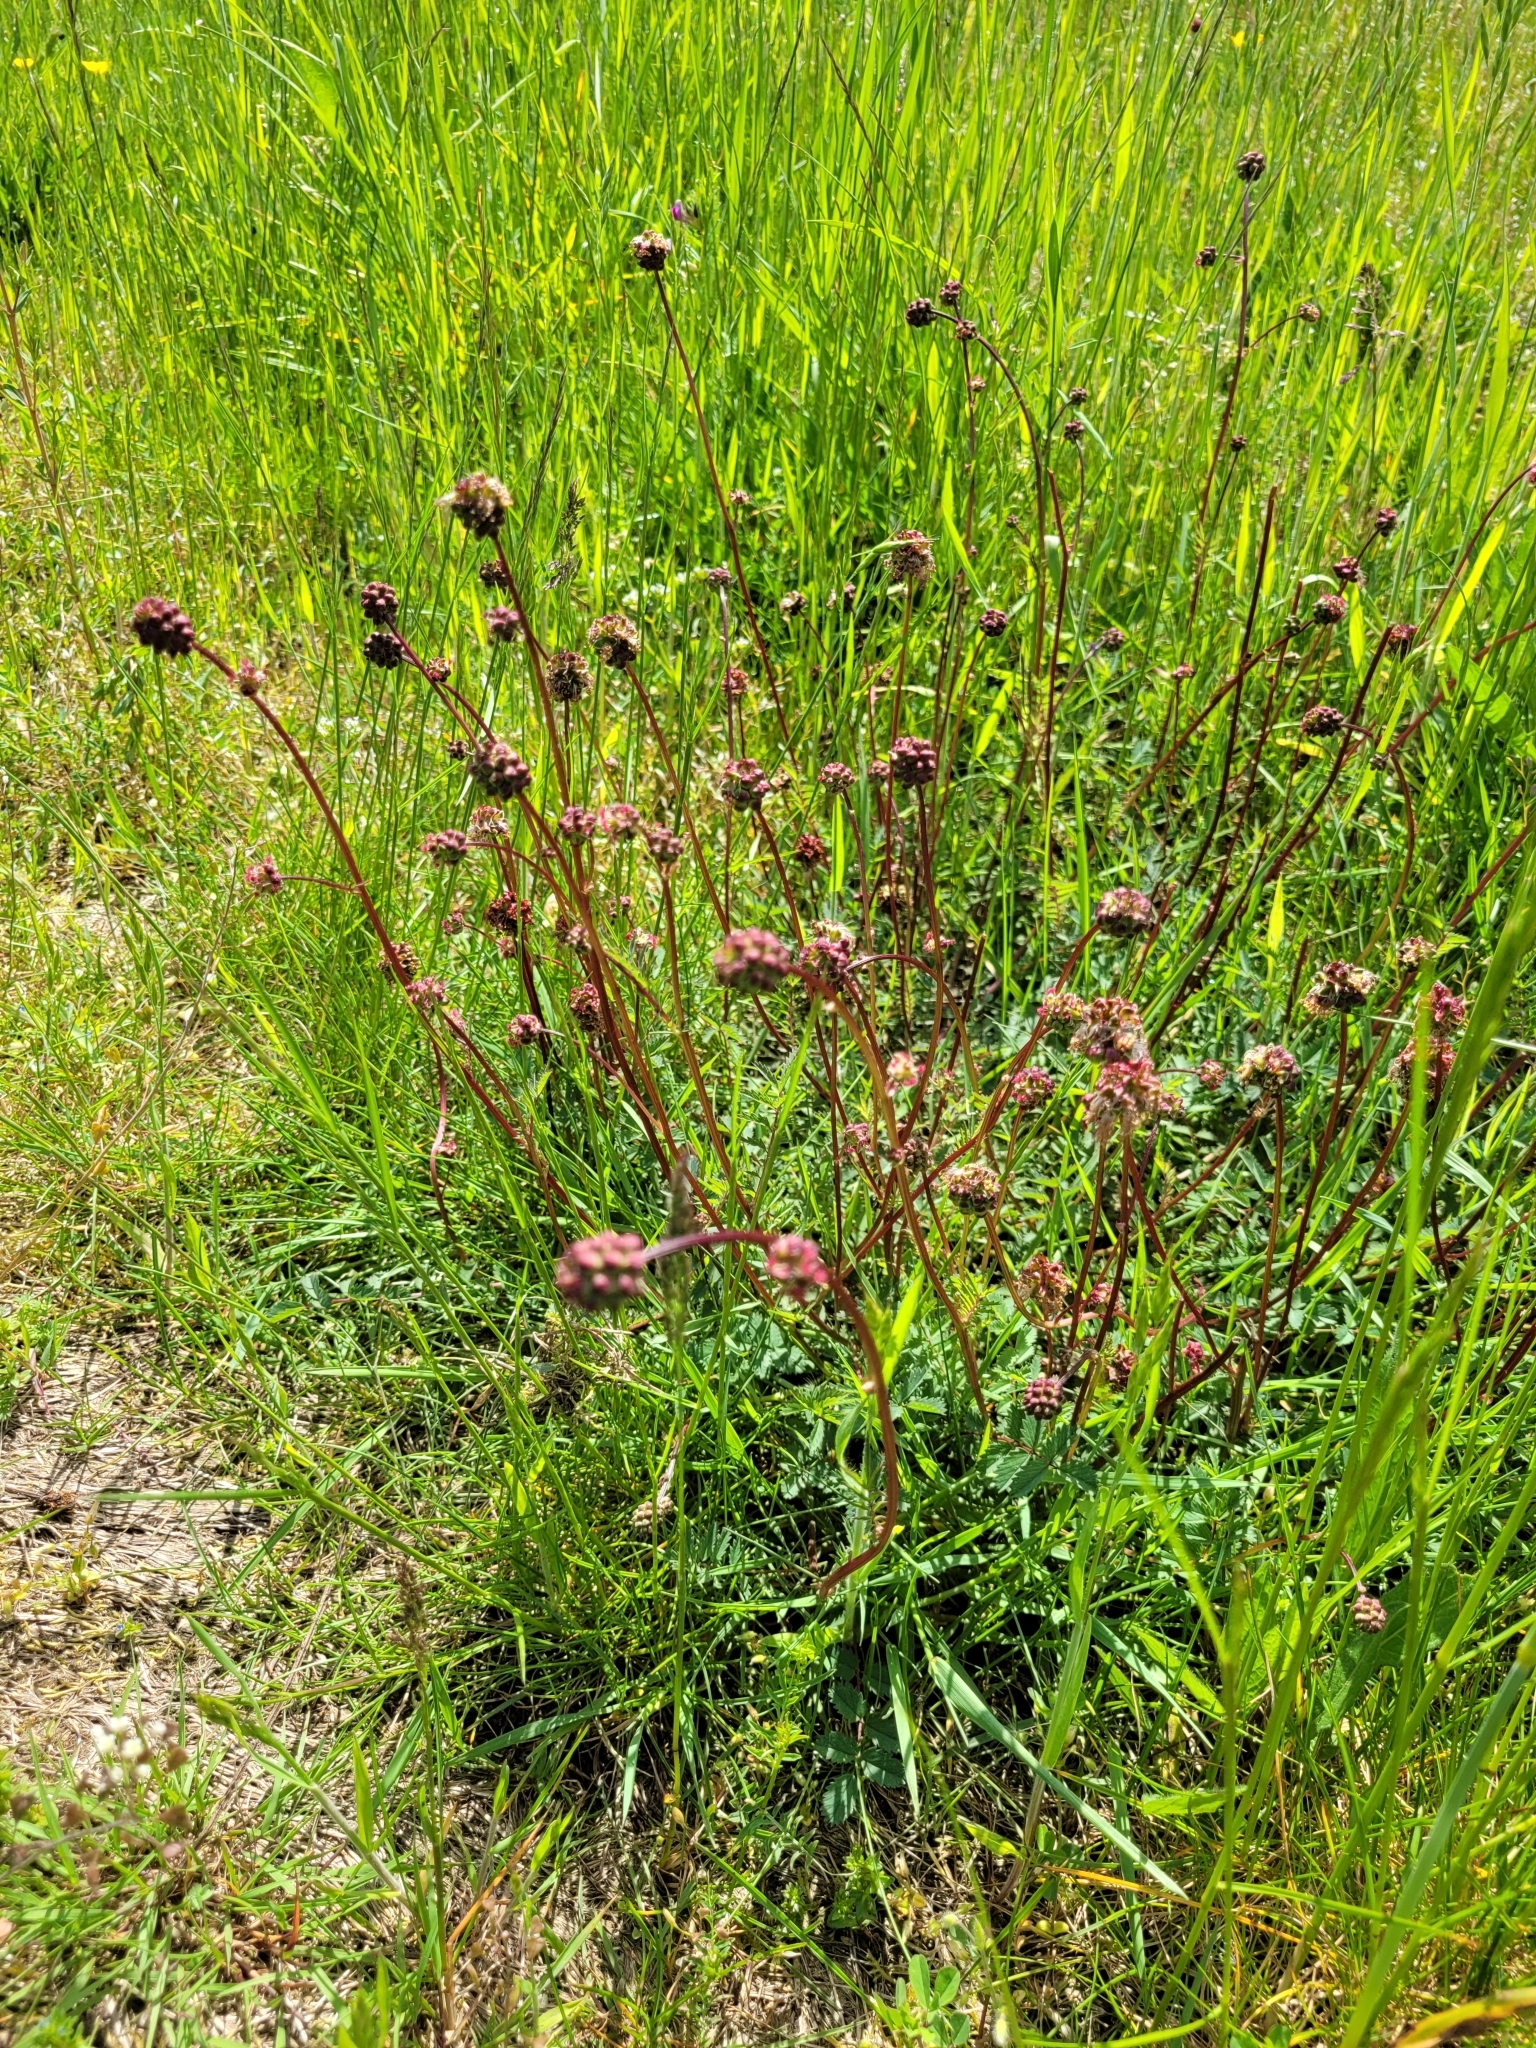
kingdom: Plantae
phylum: Tracheophyta
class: Magnoliopsida
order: Rosales
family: Rosaceae
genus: Poterium
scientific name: Poterium sanguisorba
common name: Salad burnet
